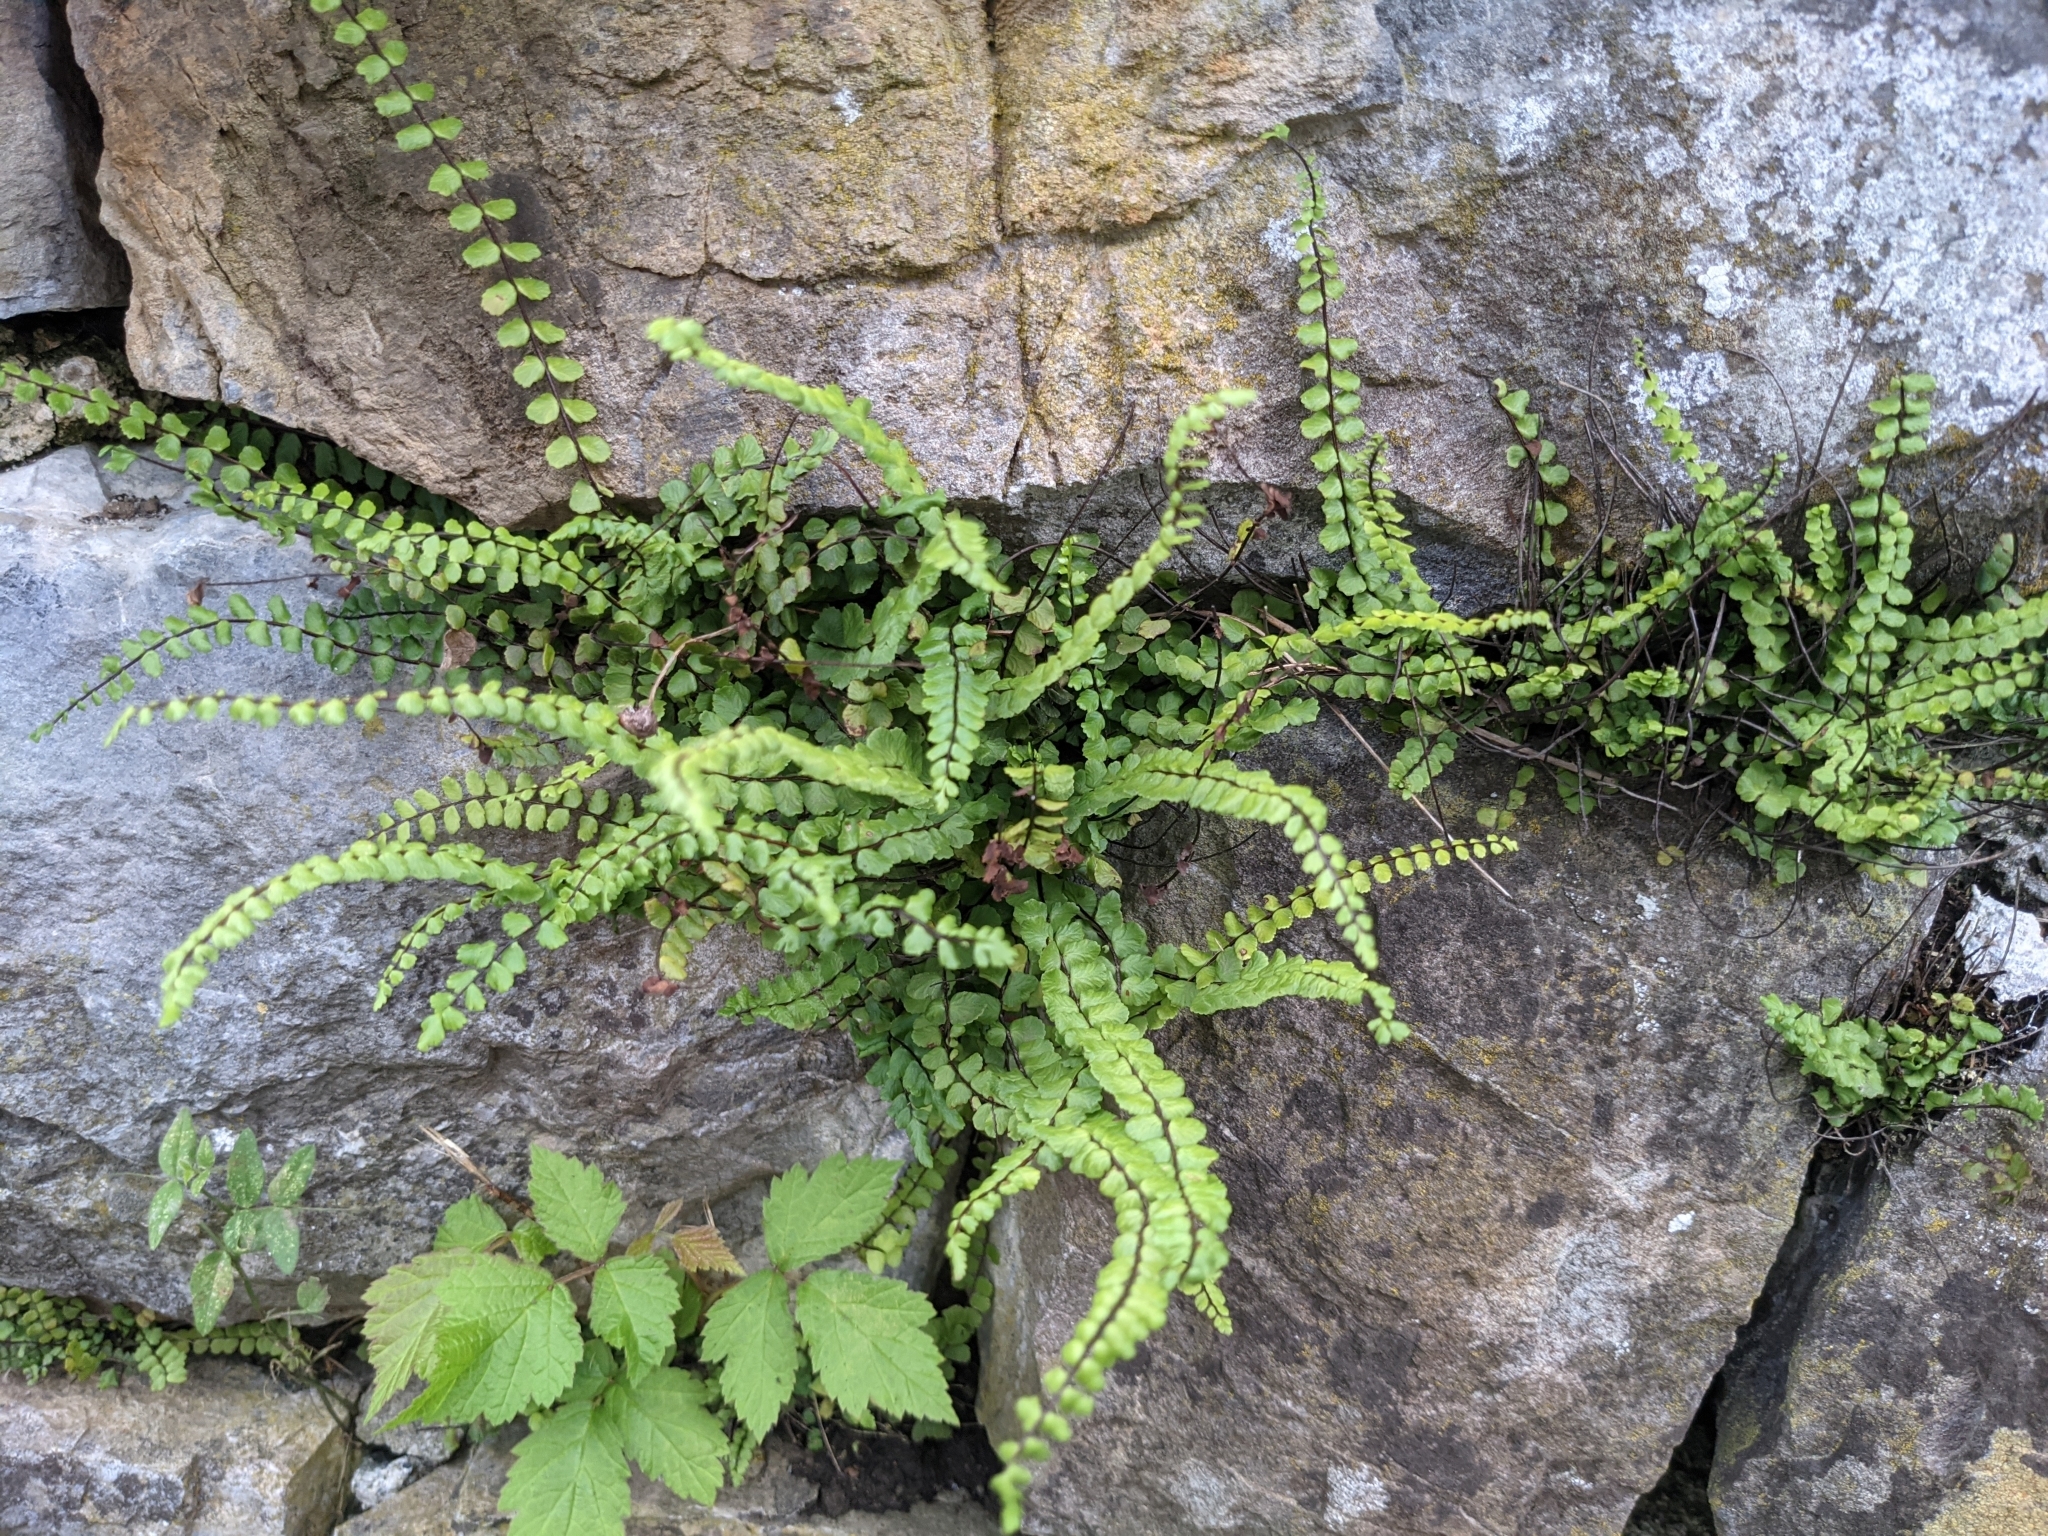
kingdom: Plantae
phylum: Tracheophyta
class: Polypodiopsida
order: Polypodiales
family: Aspleniaceae
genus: Asplenium
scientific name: Asplenium trichomanes
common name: Maidenhair spleenwort
